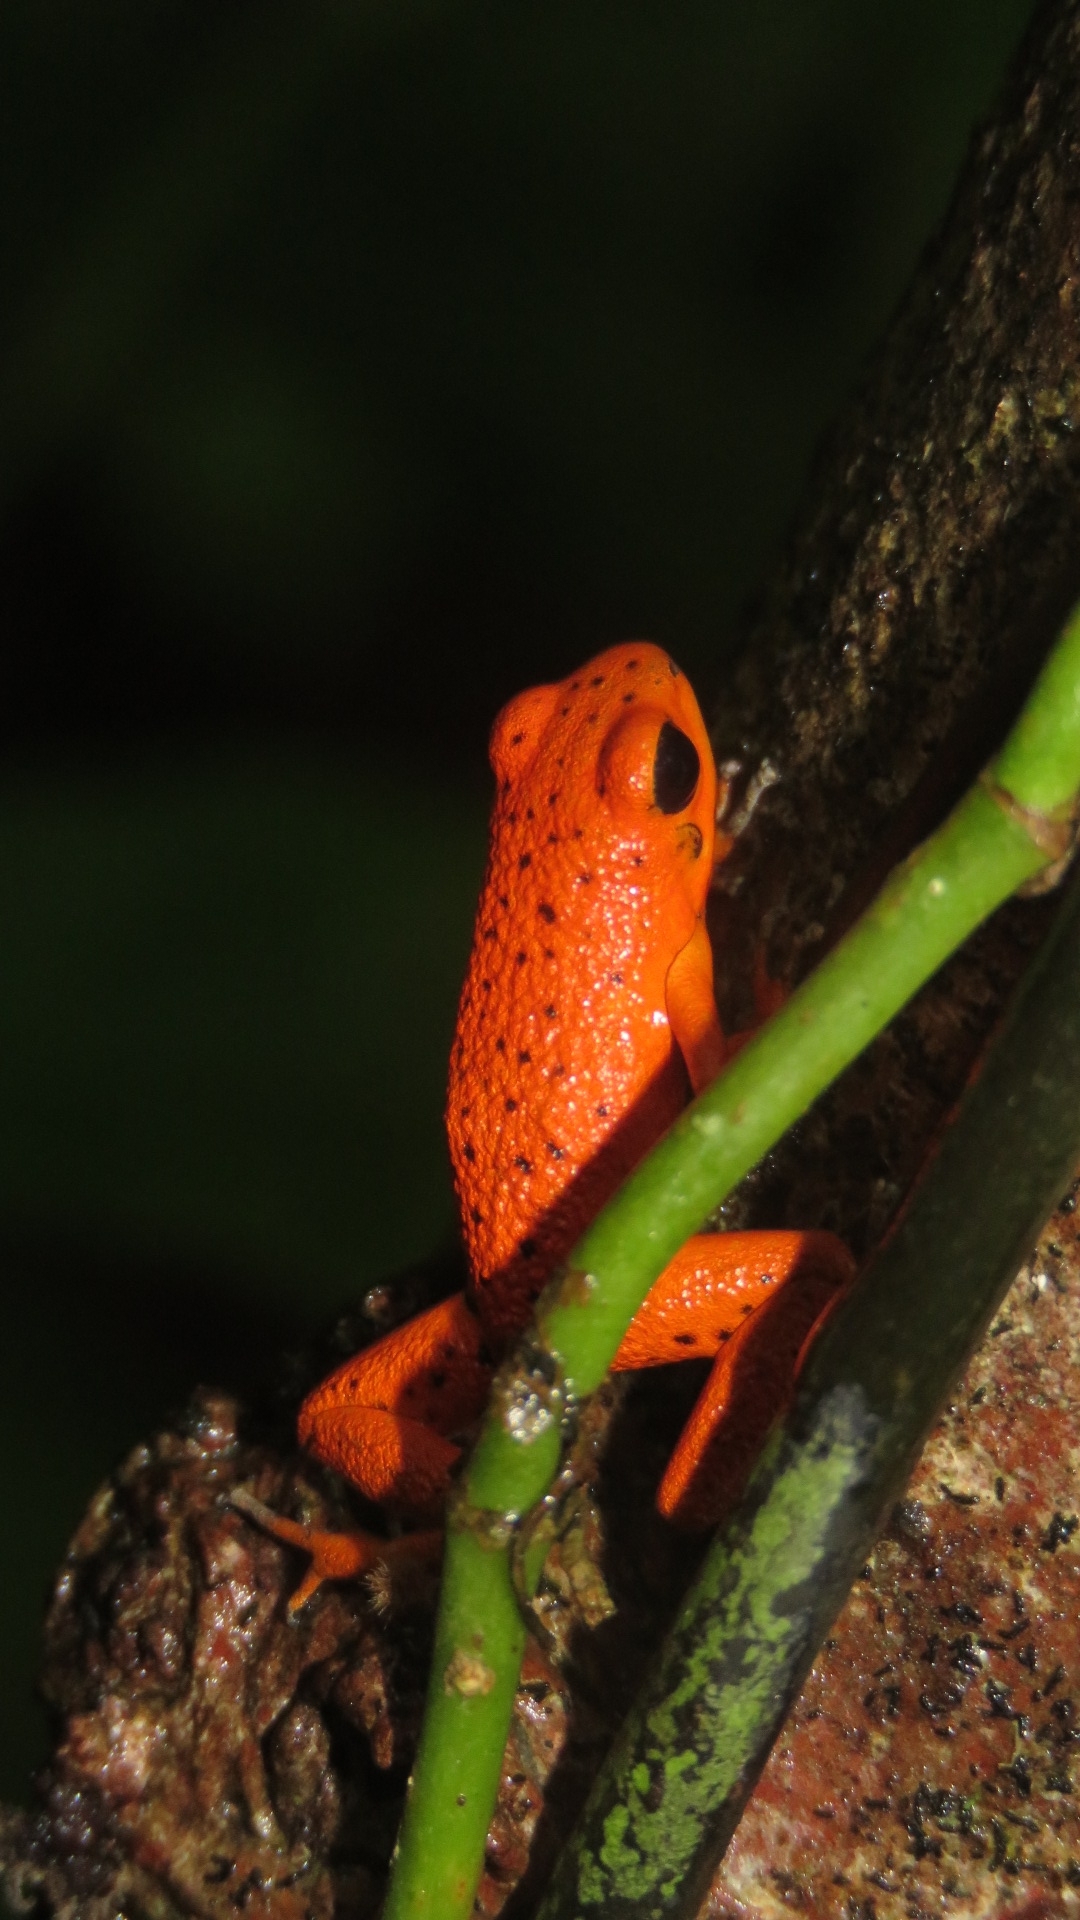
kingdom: Animalia
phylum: Chordata
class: Amphibia
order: Anura
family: Dendrobatidae
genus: Oophaga
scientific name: Oophaga pumilio
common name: Flaming poison frog
